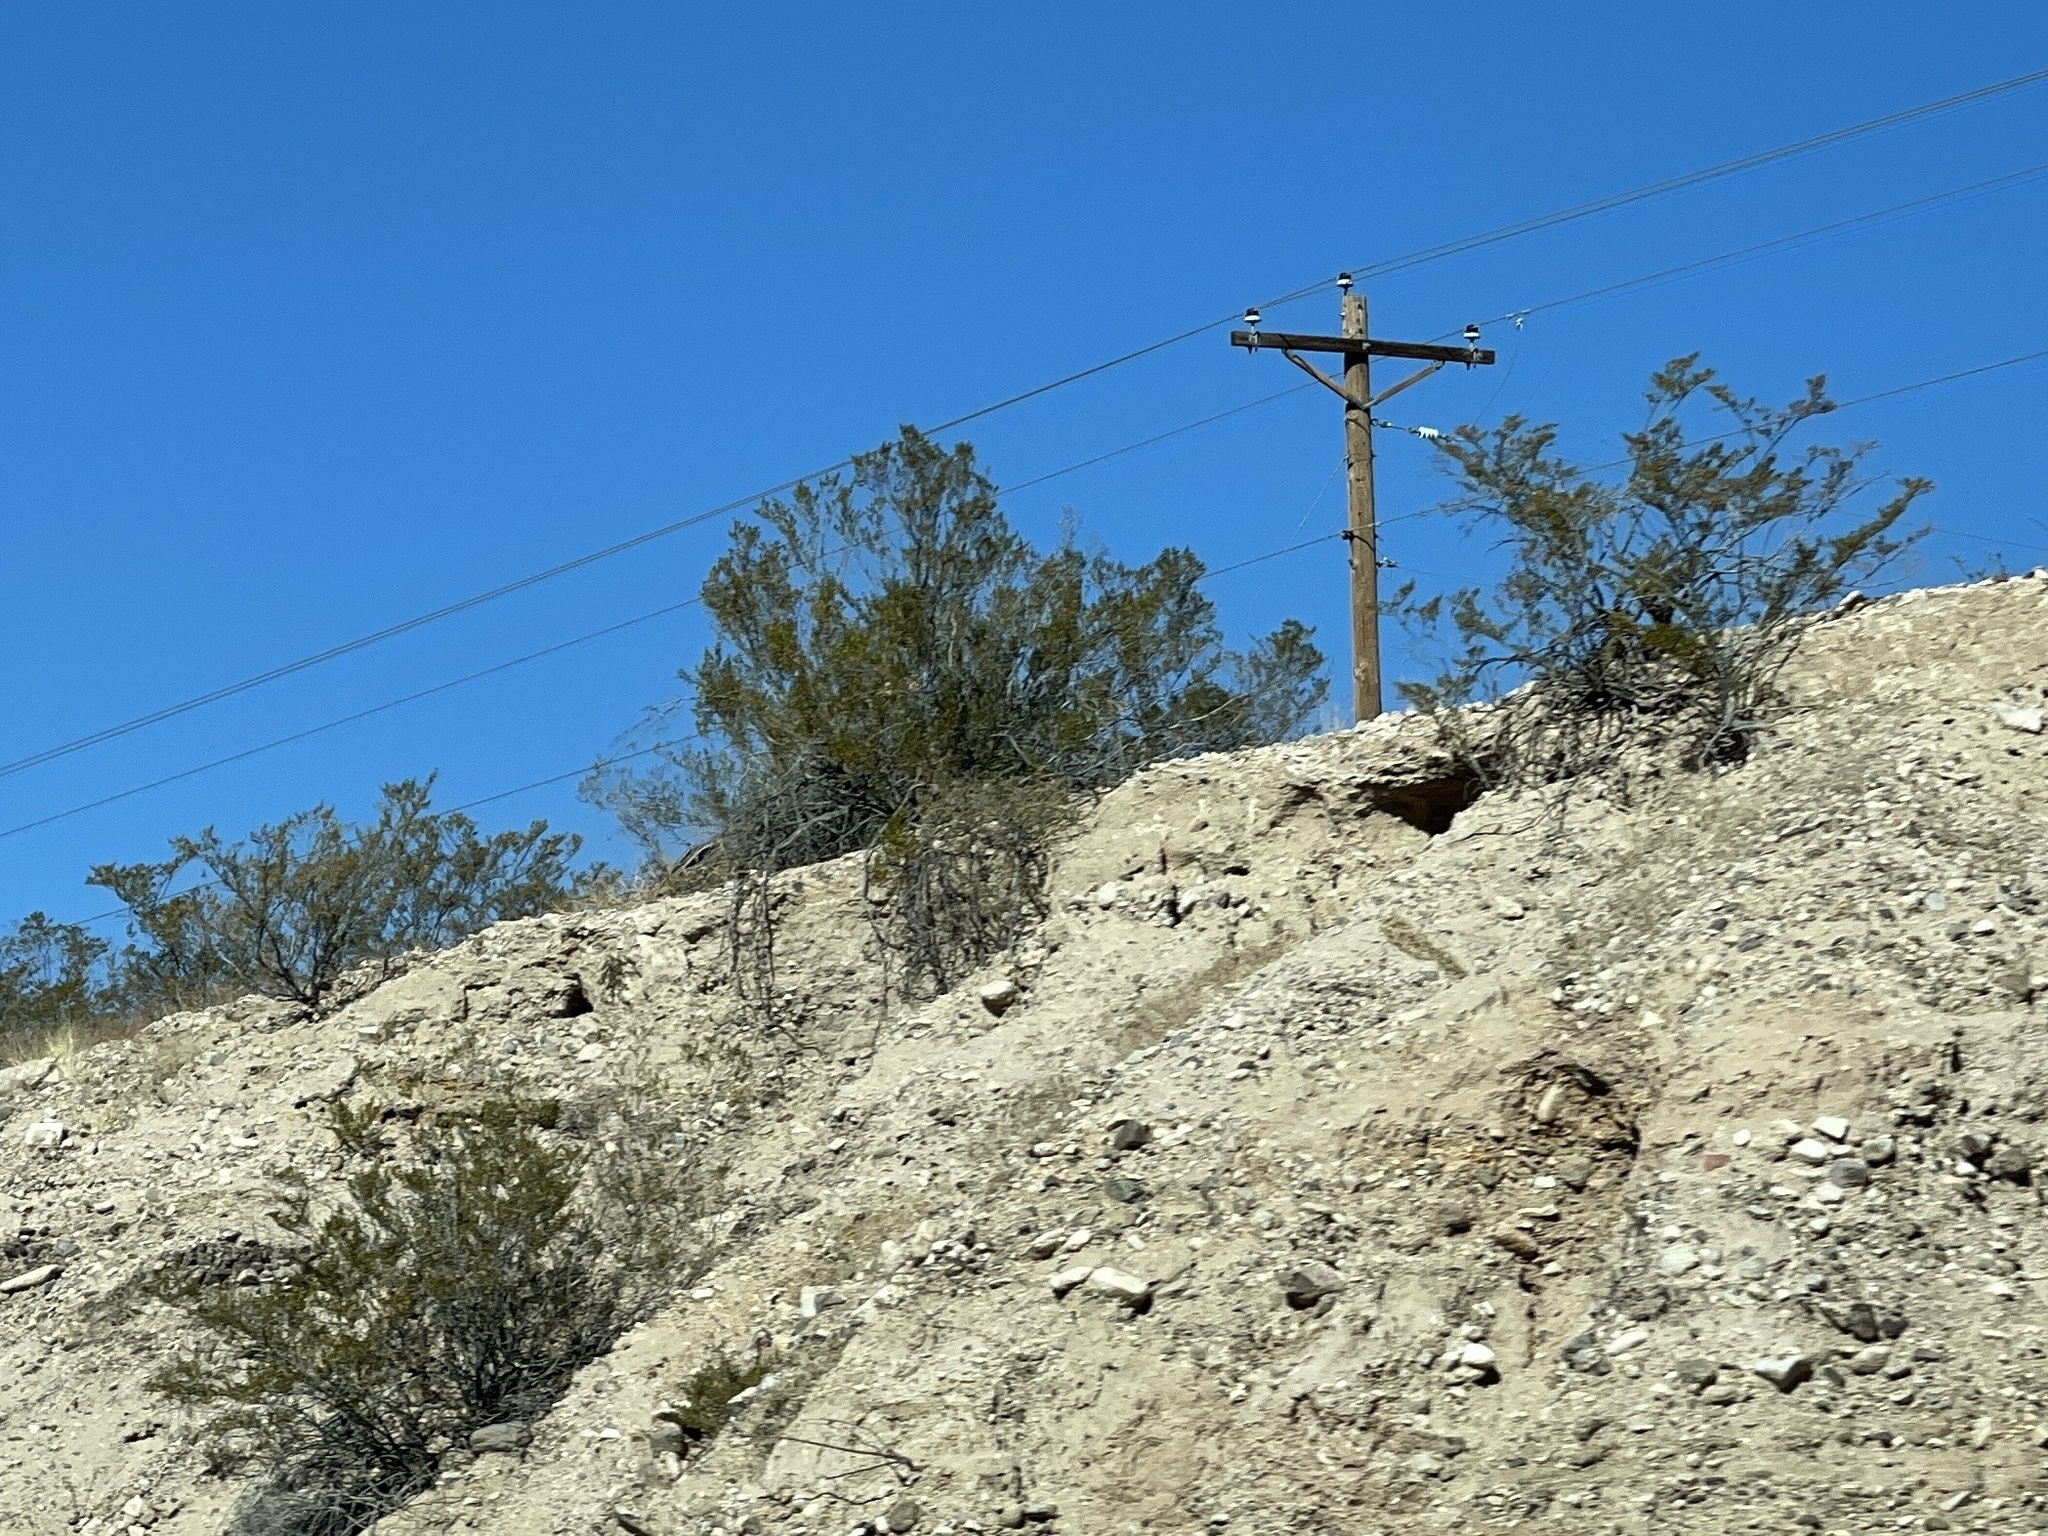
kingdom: Plantae
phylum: Tracheophyta
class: Magnoliopsida
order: Zygophyllales
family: Zygophyllaceae
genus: Larrea
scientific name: Larrea tridentata
